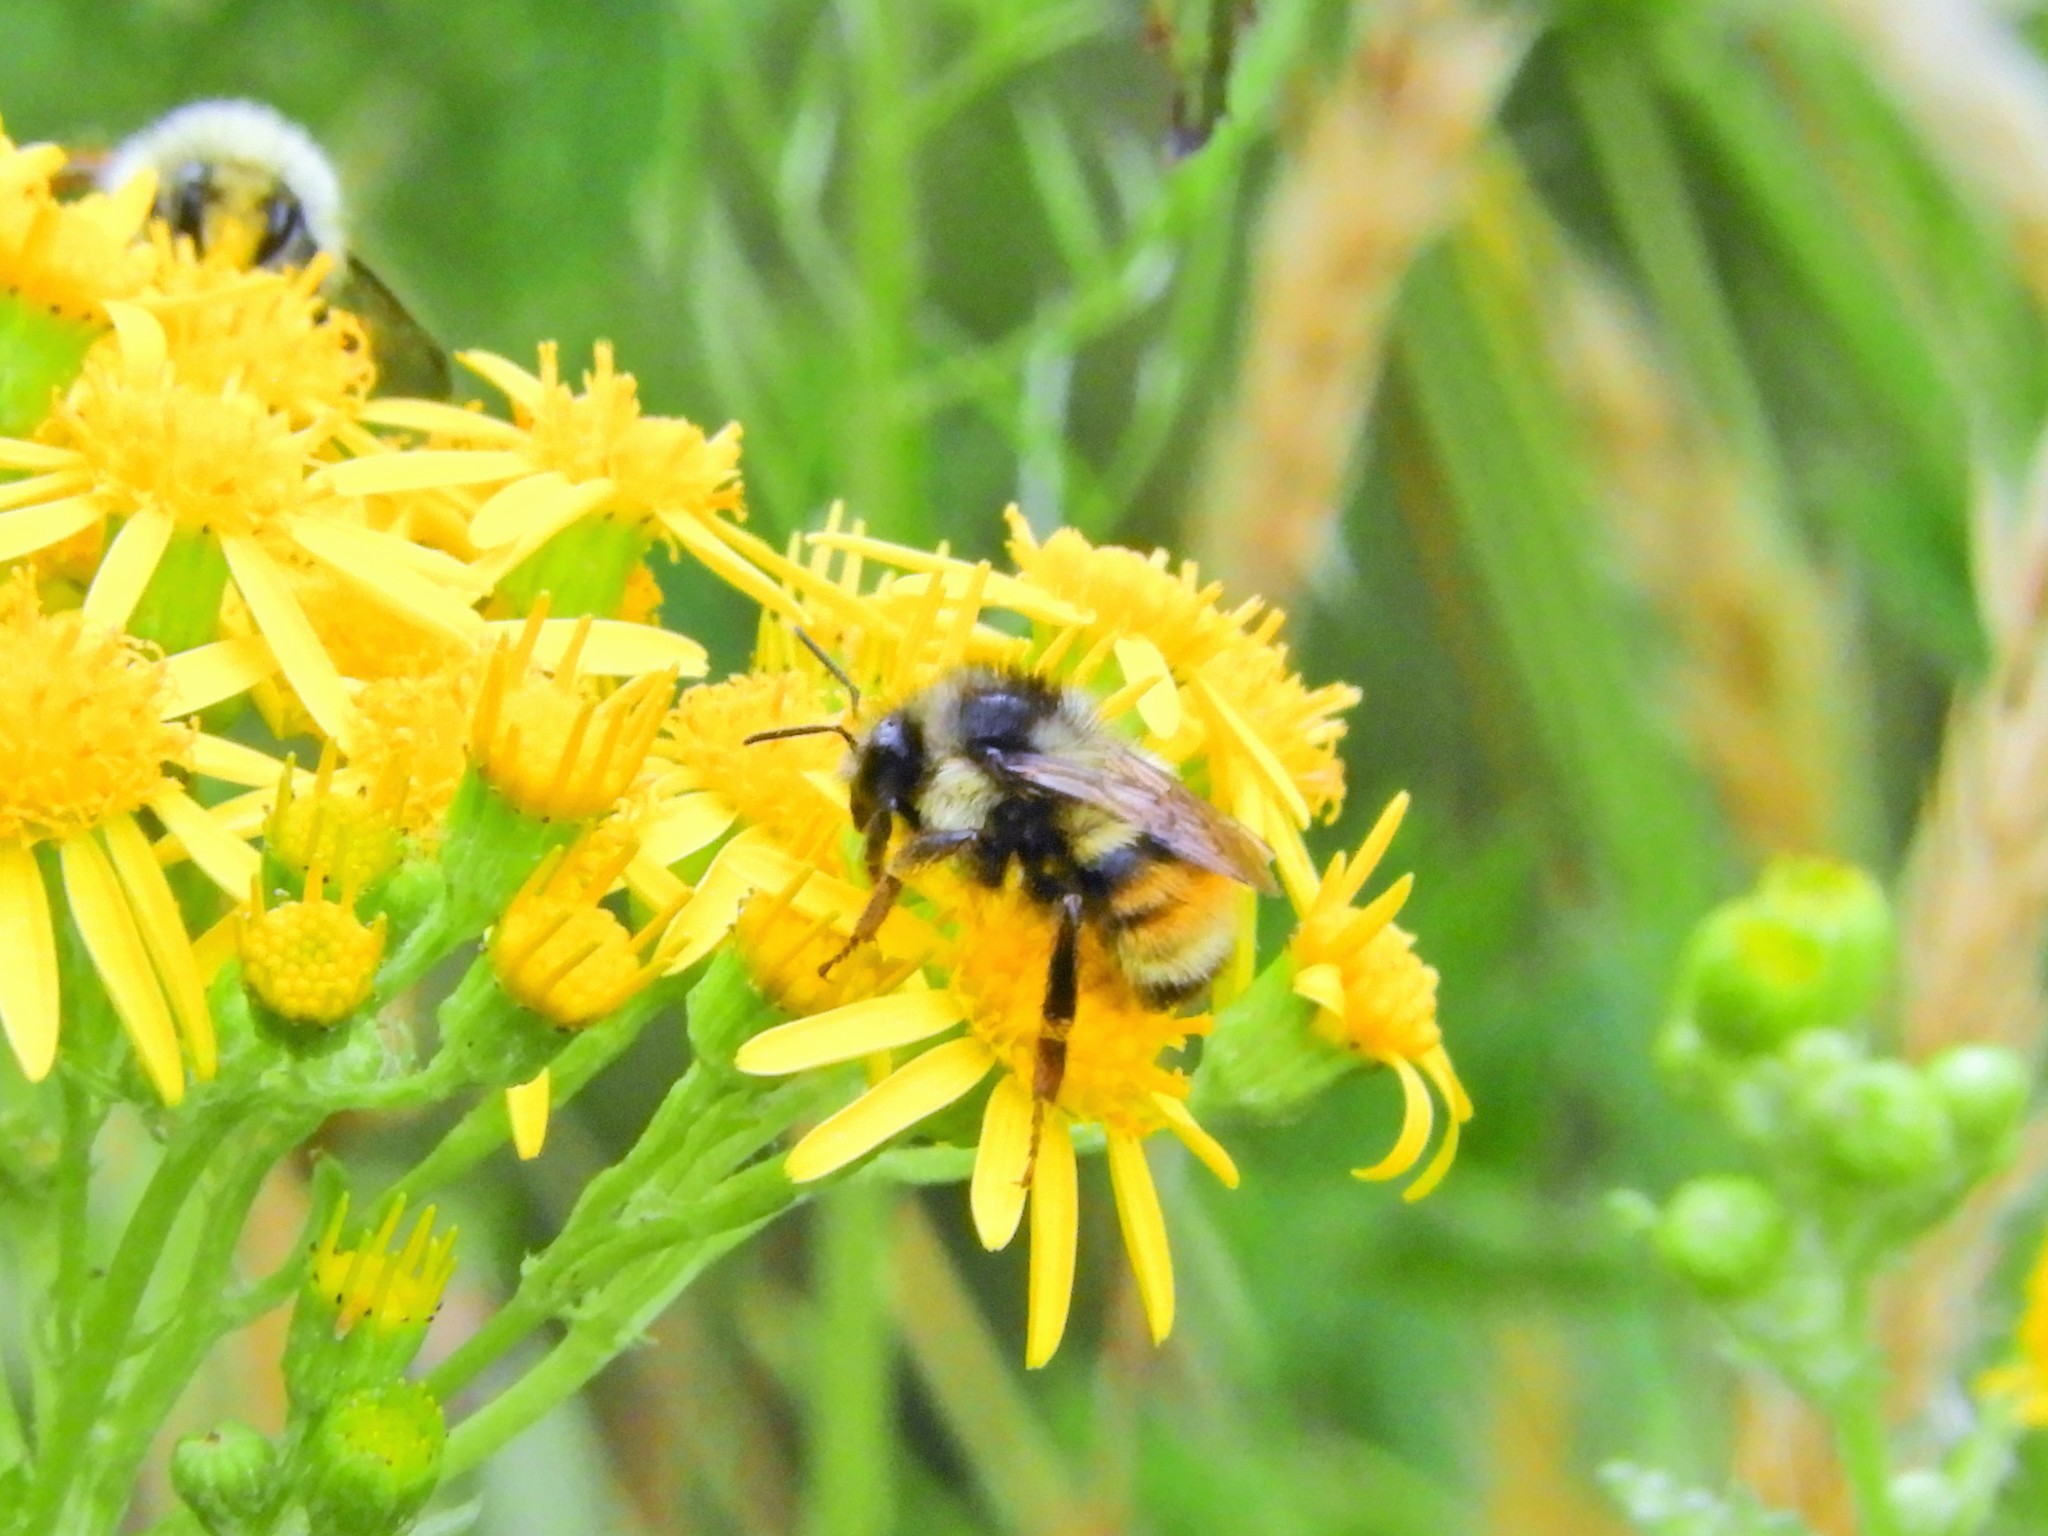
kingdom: Animalia
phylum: Arthropoda
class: Insecta
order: Hymenoptera
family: Apidae
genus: Bombus
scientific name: Bombus vancouverensis
